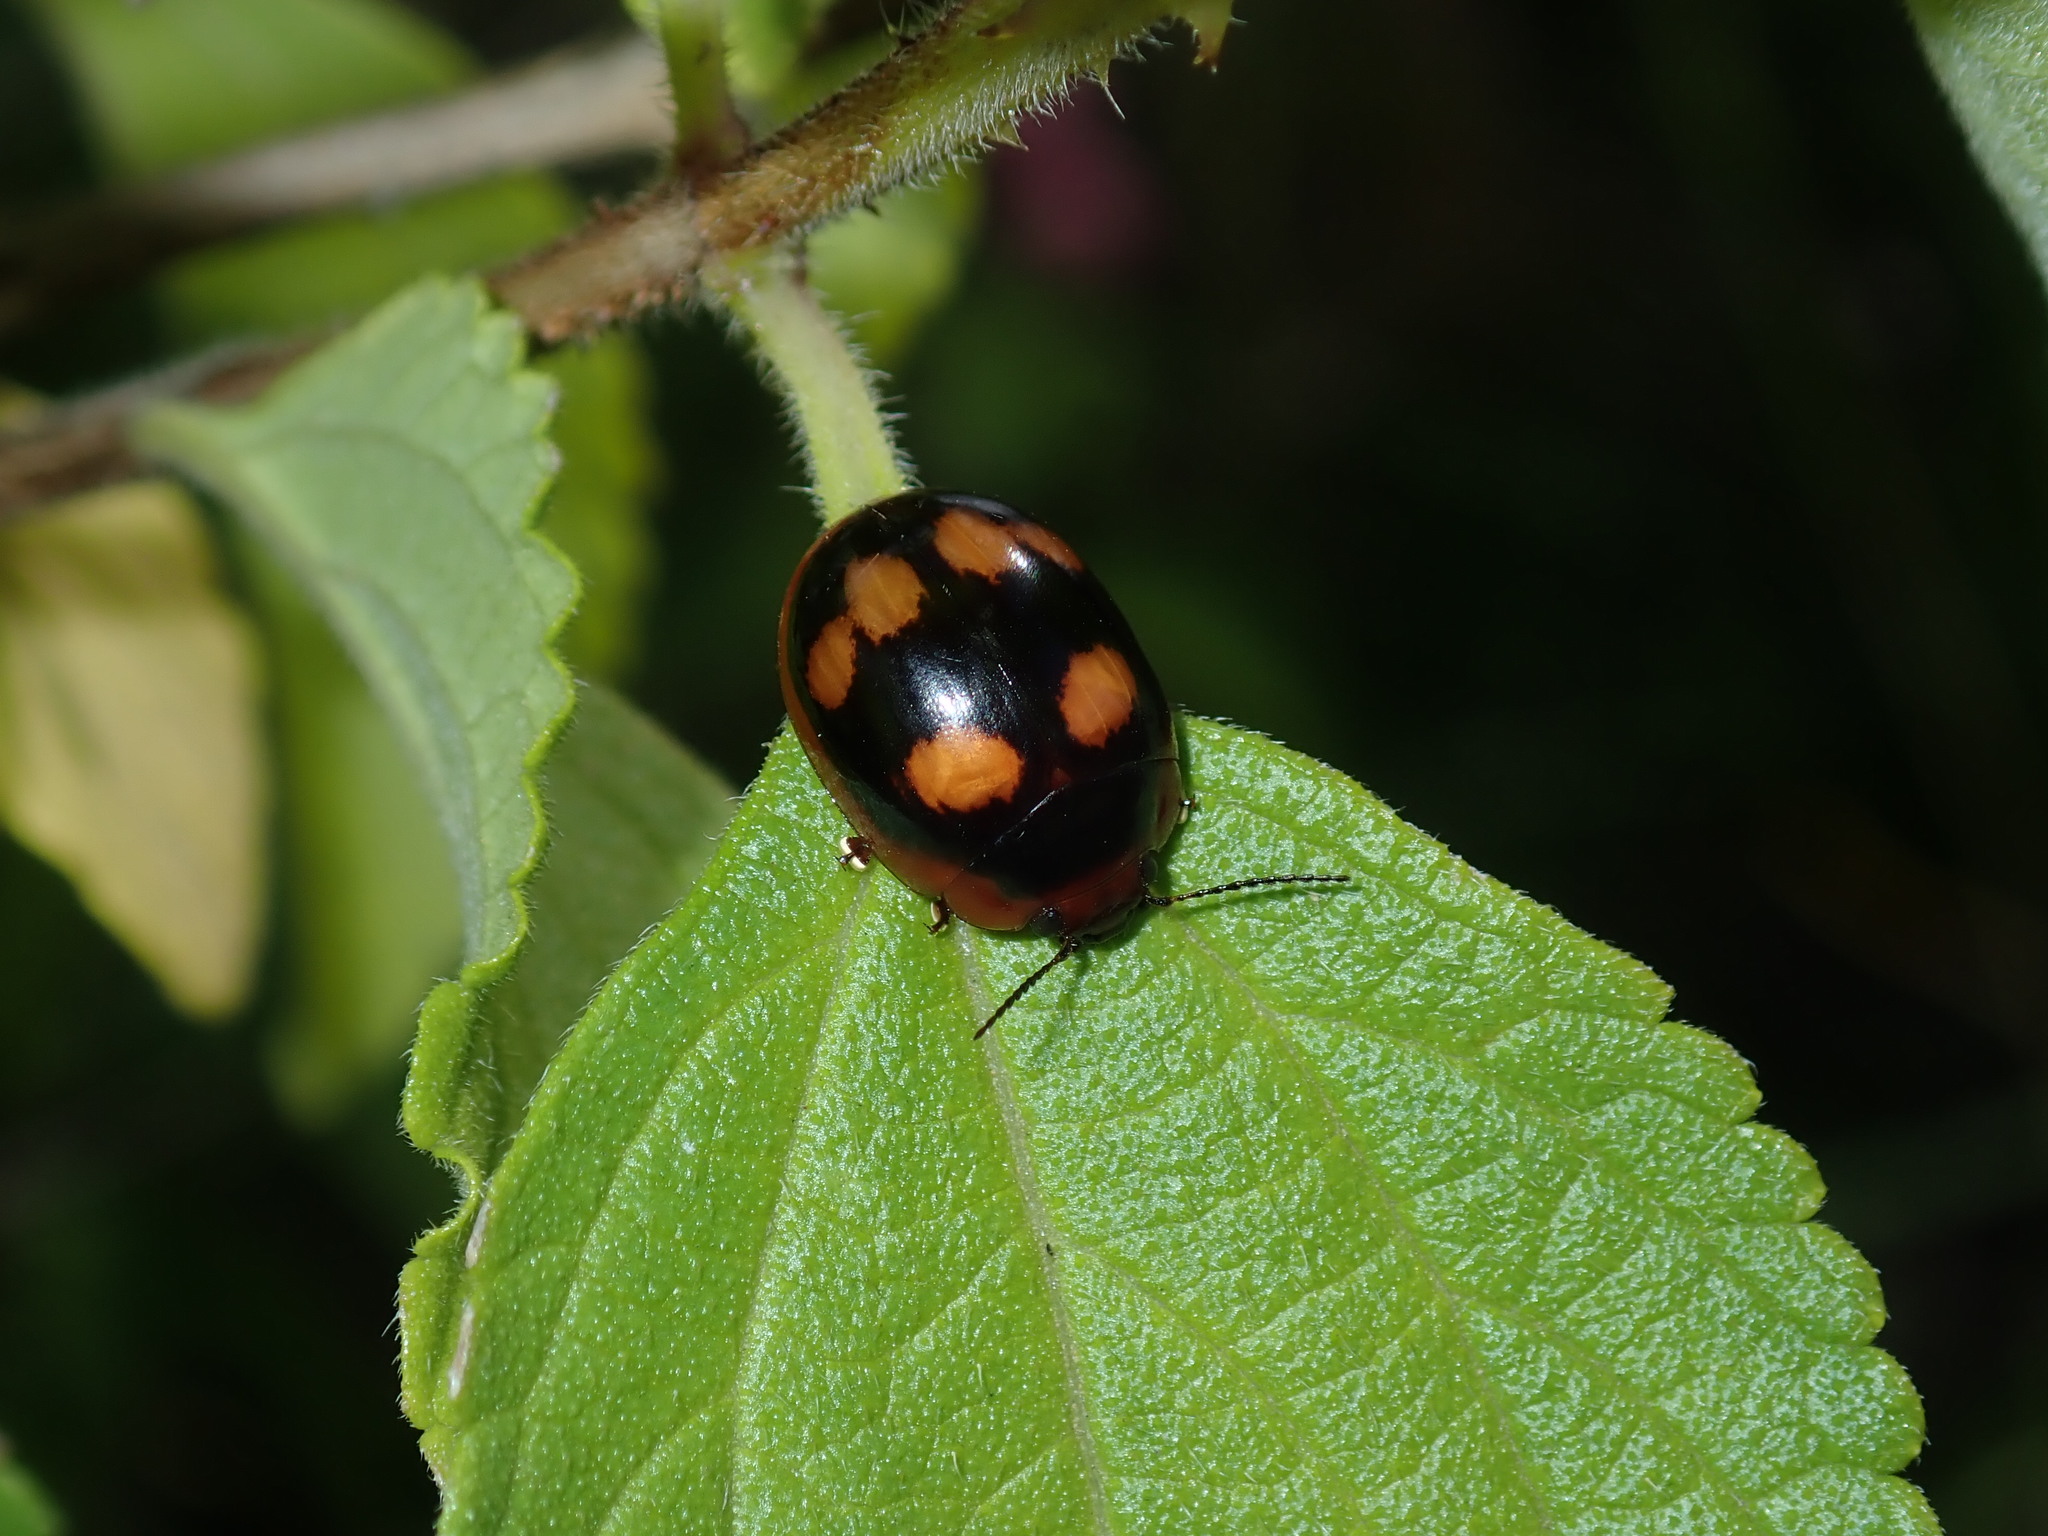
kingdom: Animalia
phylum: Arthropoda
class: Insecta
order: Coleoptera
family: Chrysomelidae
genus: Paropsisterna
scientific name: Paropsisterna beata
